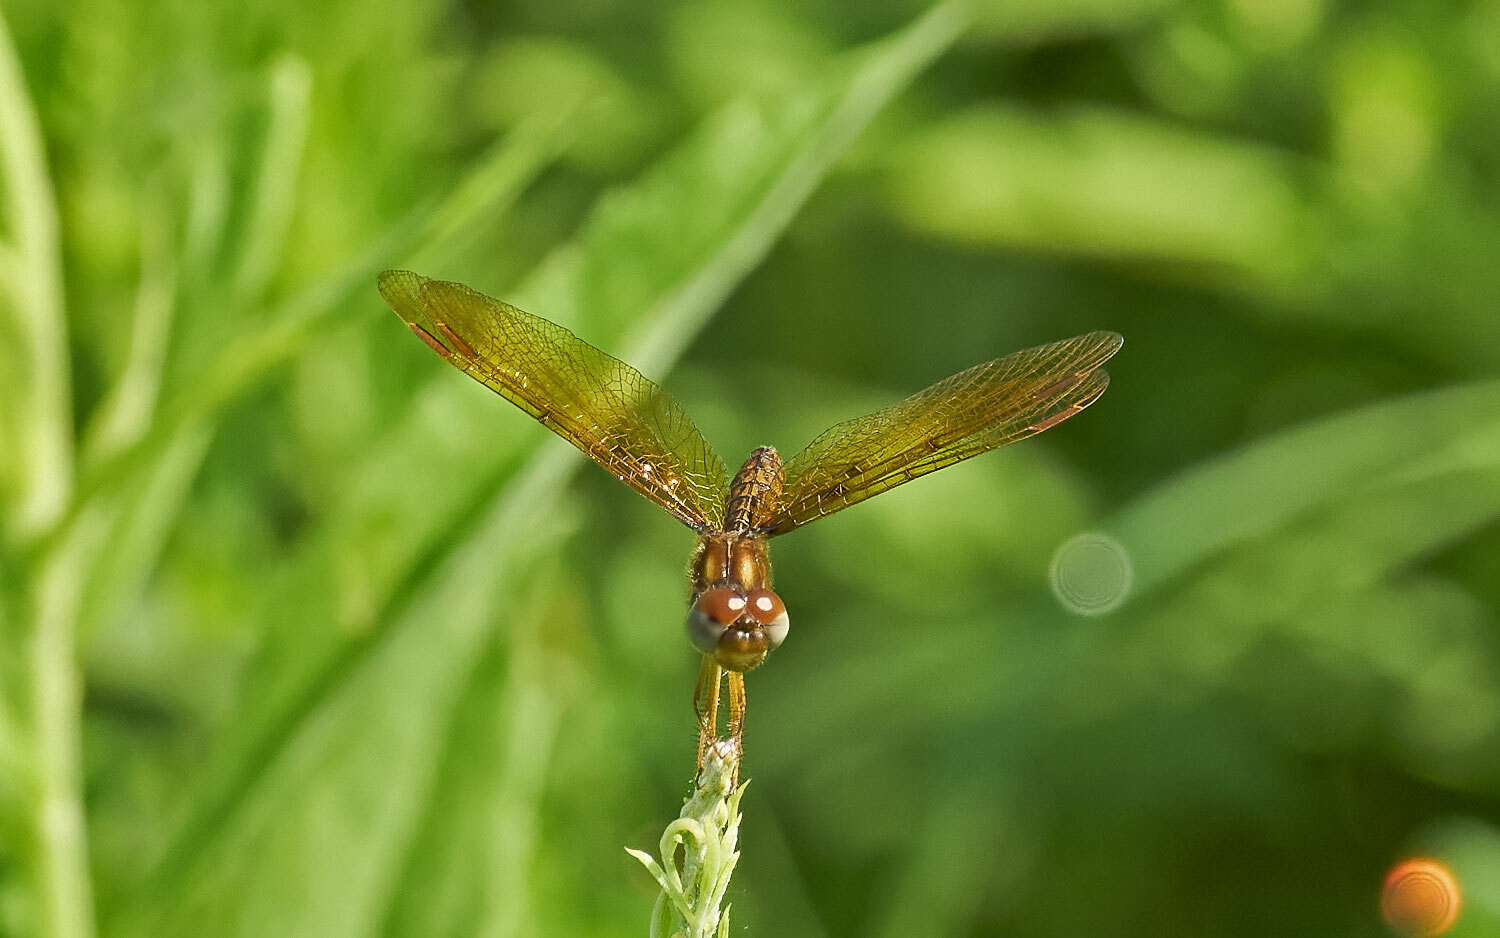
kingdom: Animalia
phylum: Arthropoda
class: Insecta
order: Odonata
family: Libellulidae
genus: Perithemis
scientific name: Perithemis tenera
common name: Eastern amberwing
